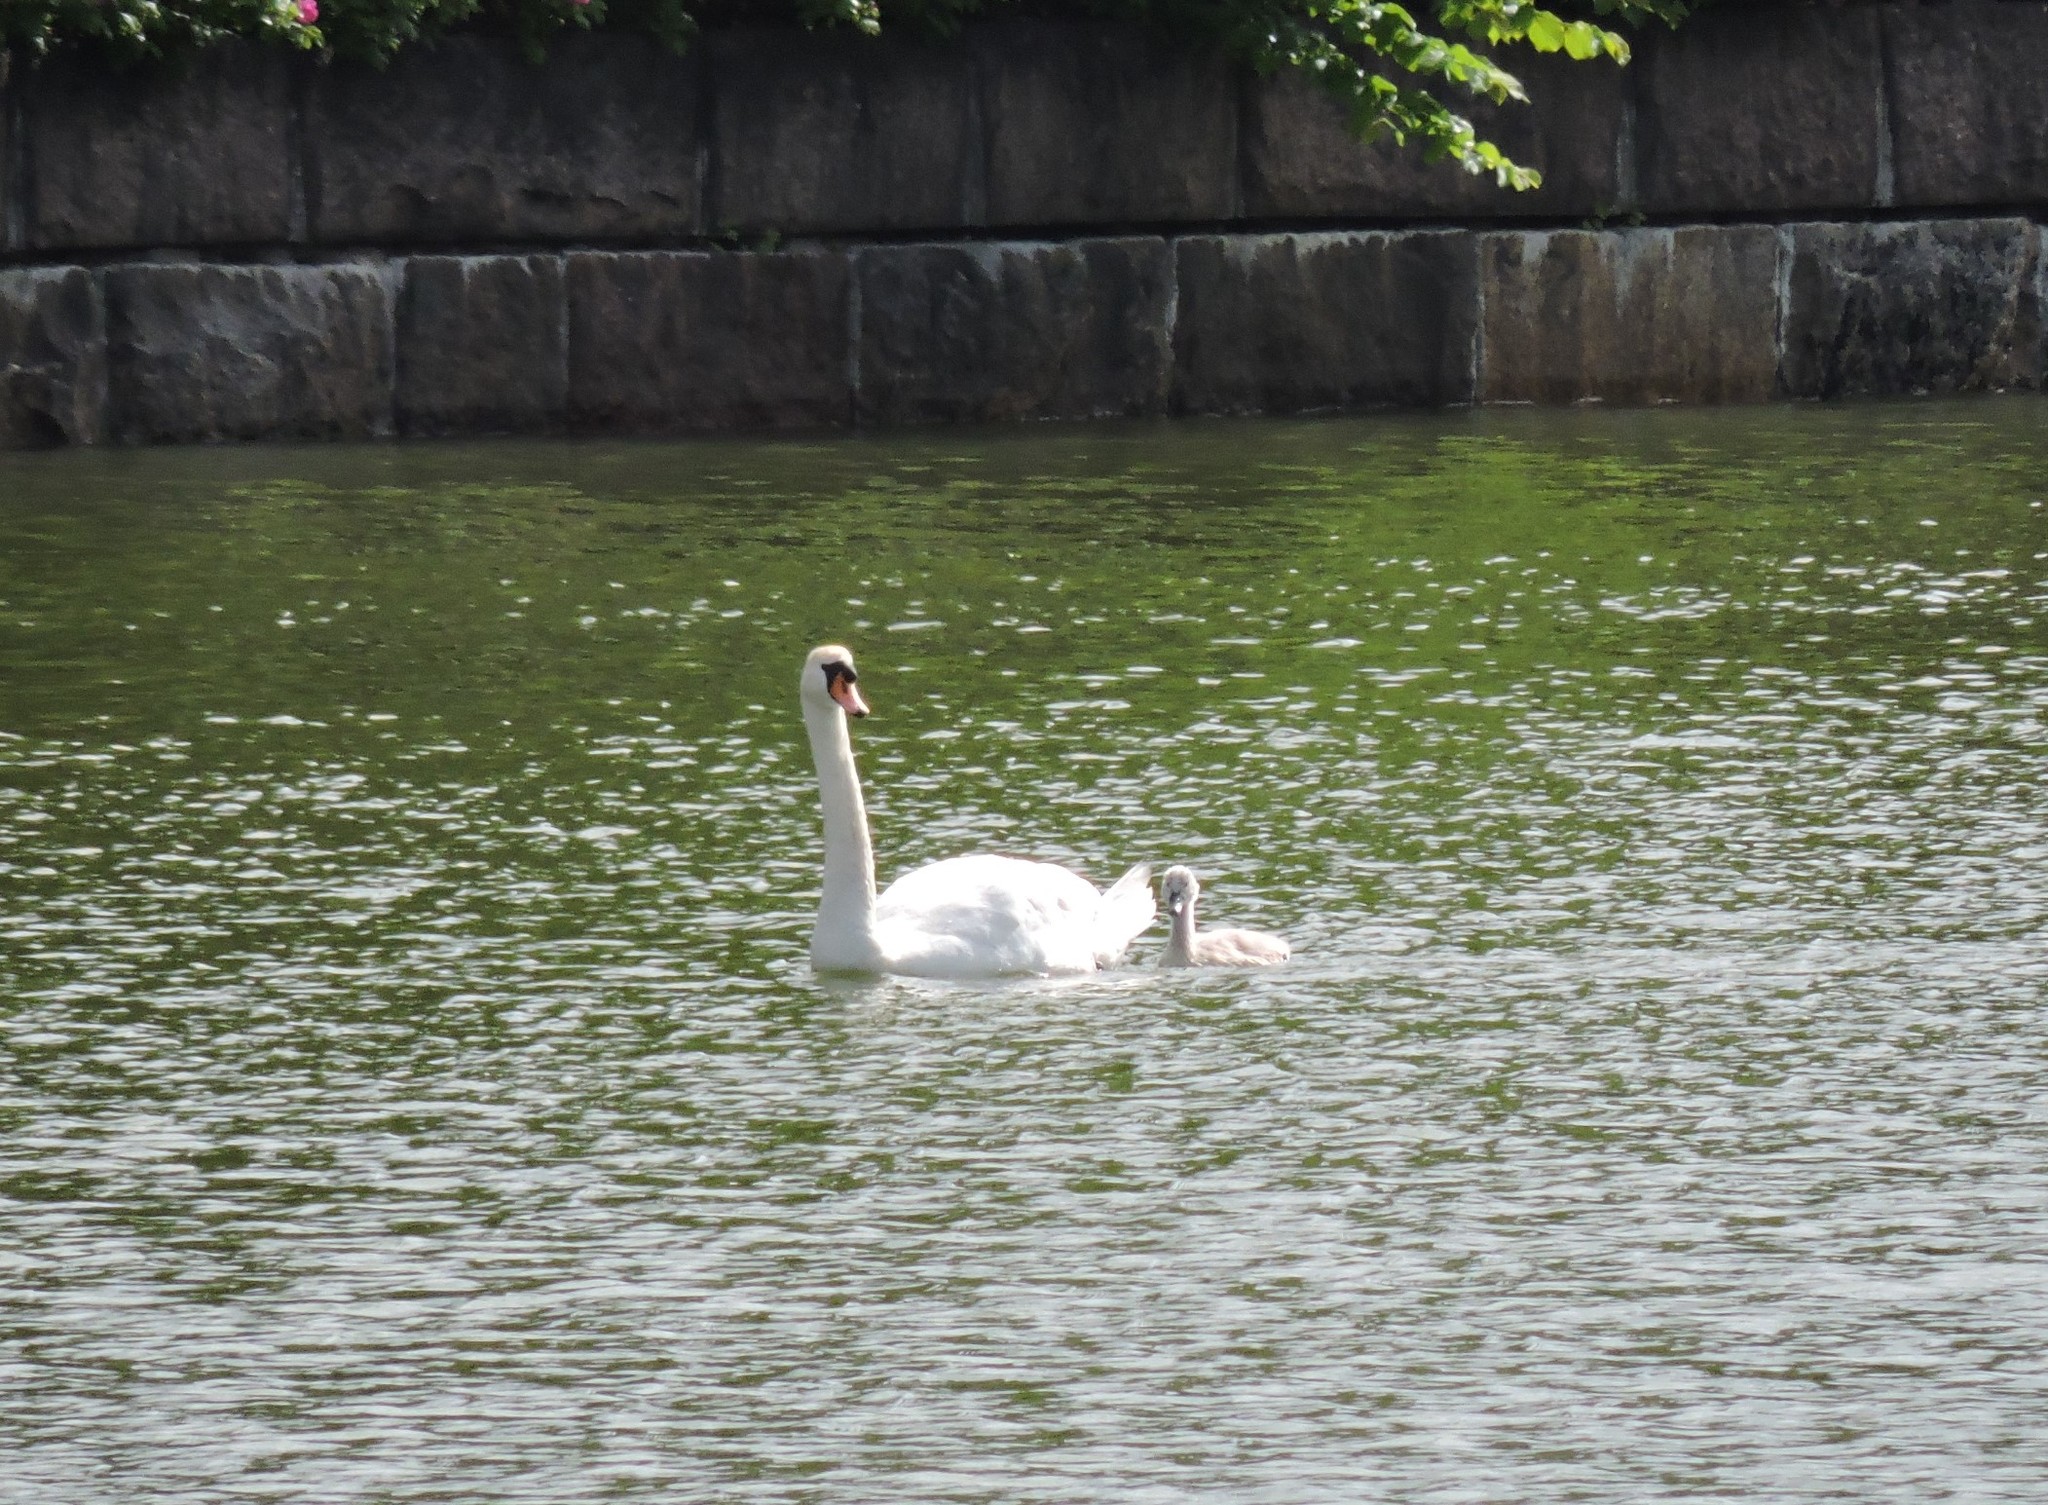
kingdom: Animalia
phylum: Chordata
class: Aves
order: Anseriformes
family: Anatidae
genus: Cygnus
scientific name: Cygnus olor
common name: Mute swan
